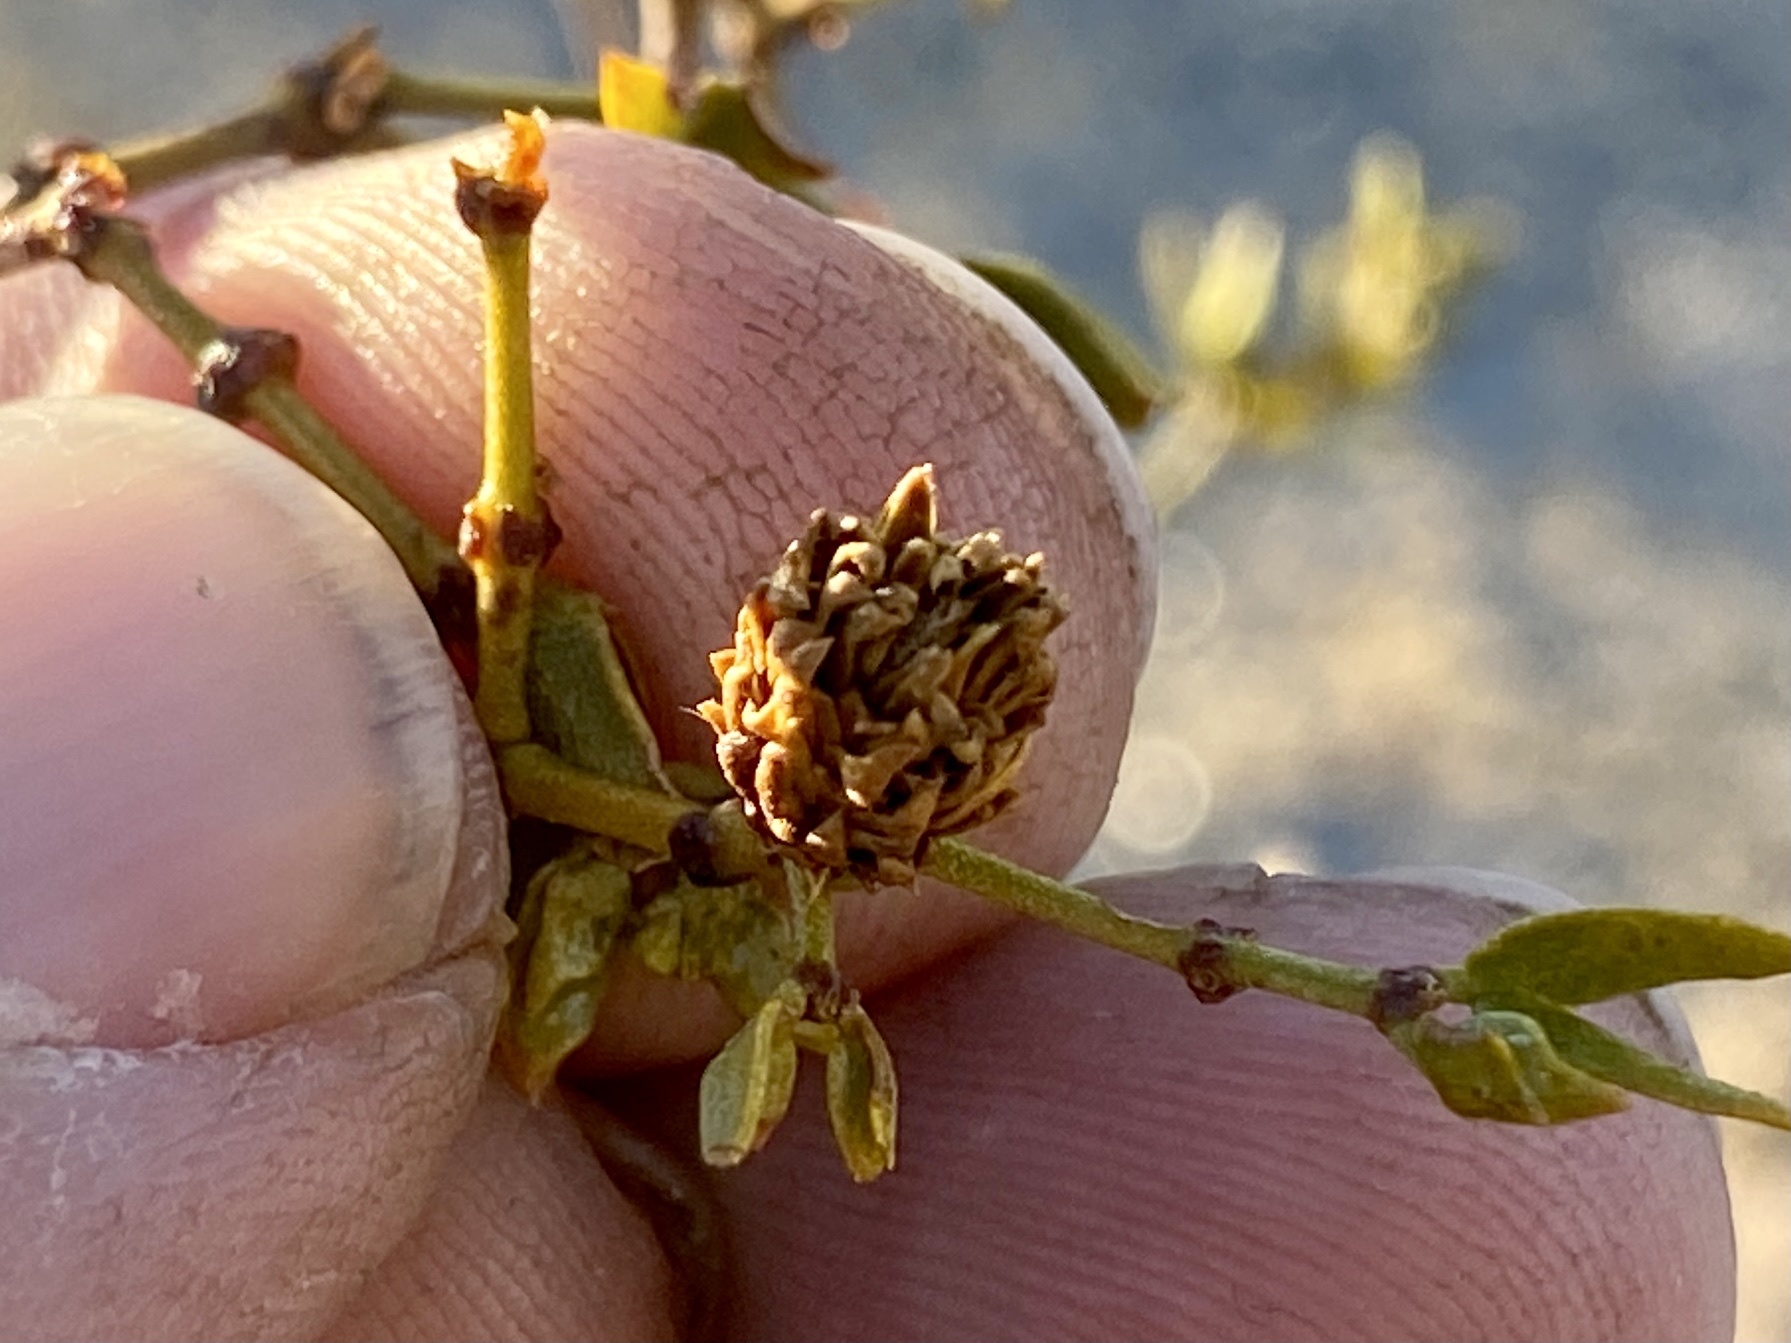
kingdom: Animalia
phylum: Arthropoda
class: Insecta
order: Diptera
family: Cecidomyiidae
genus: Asphondylia
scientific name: Asphondylia rosetta
